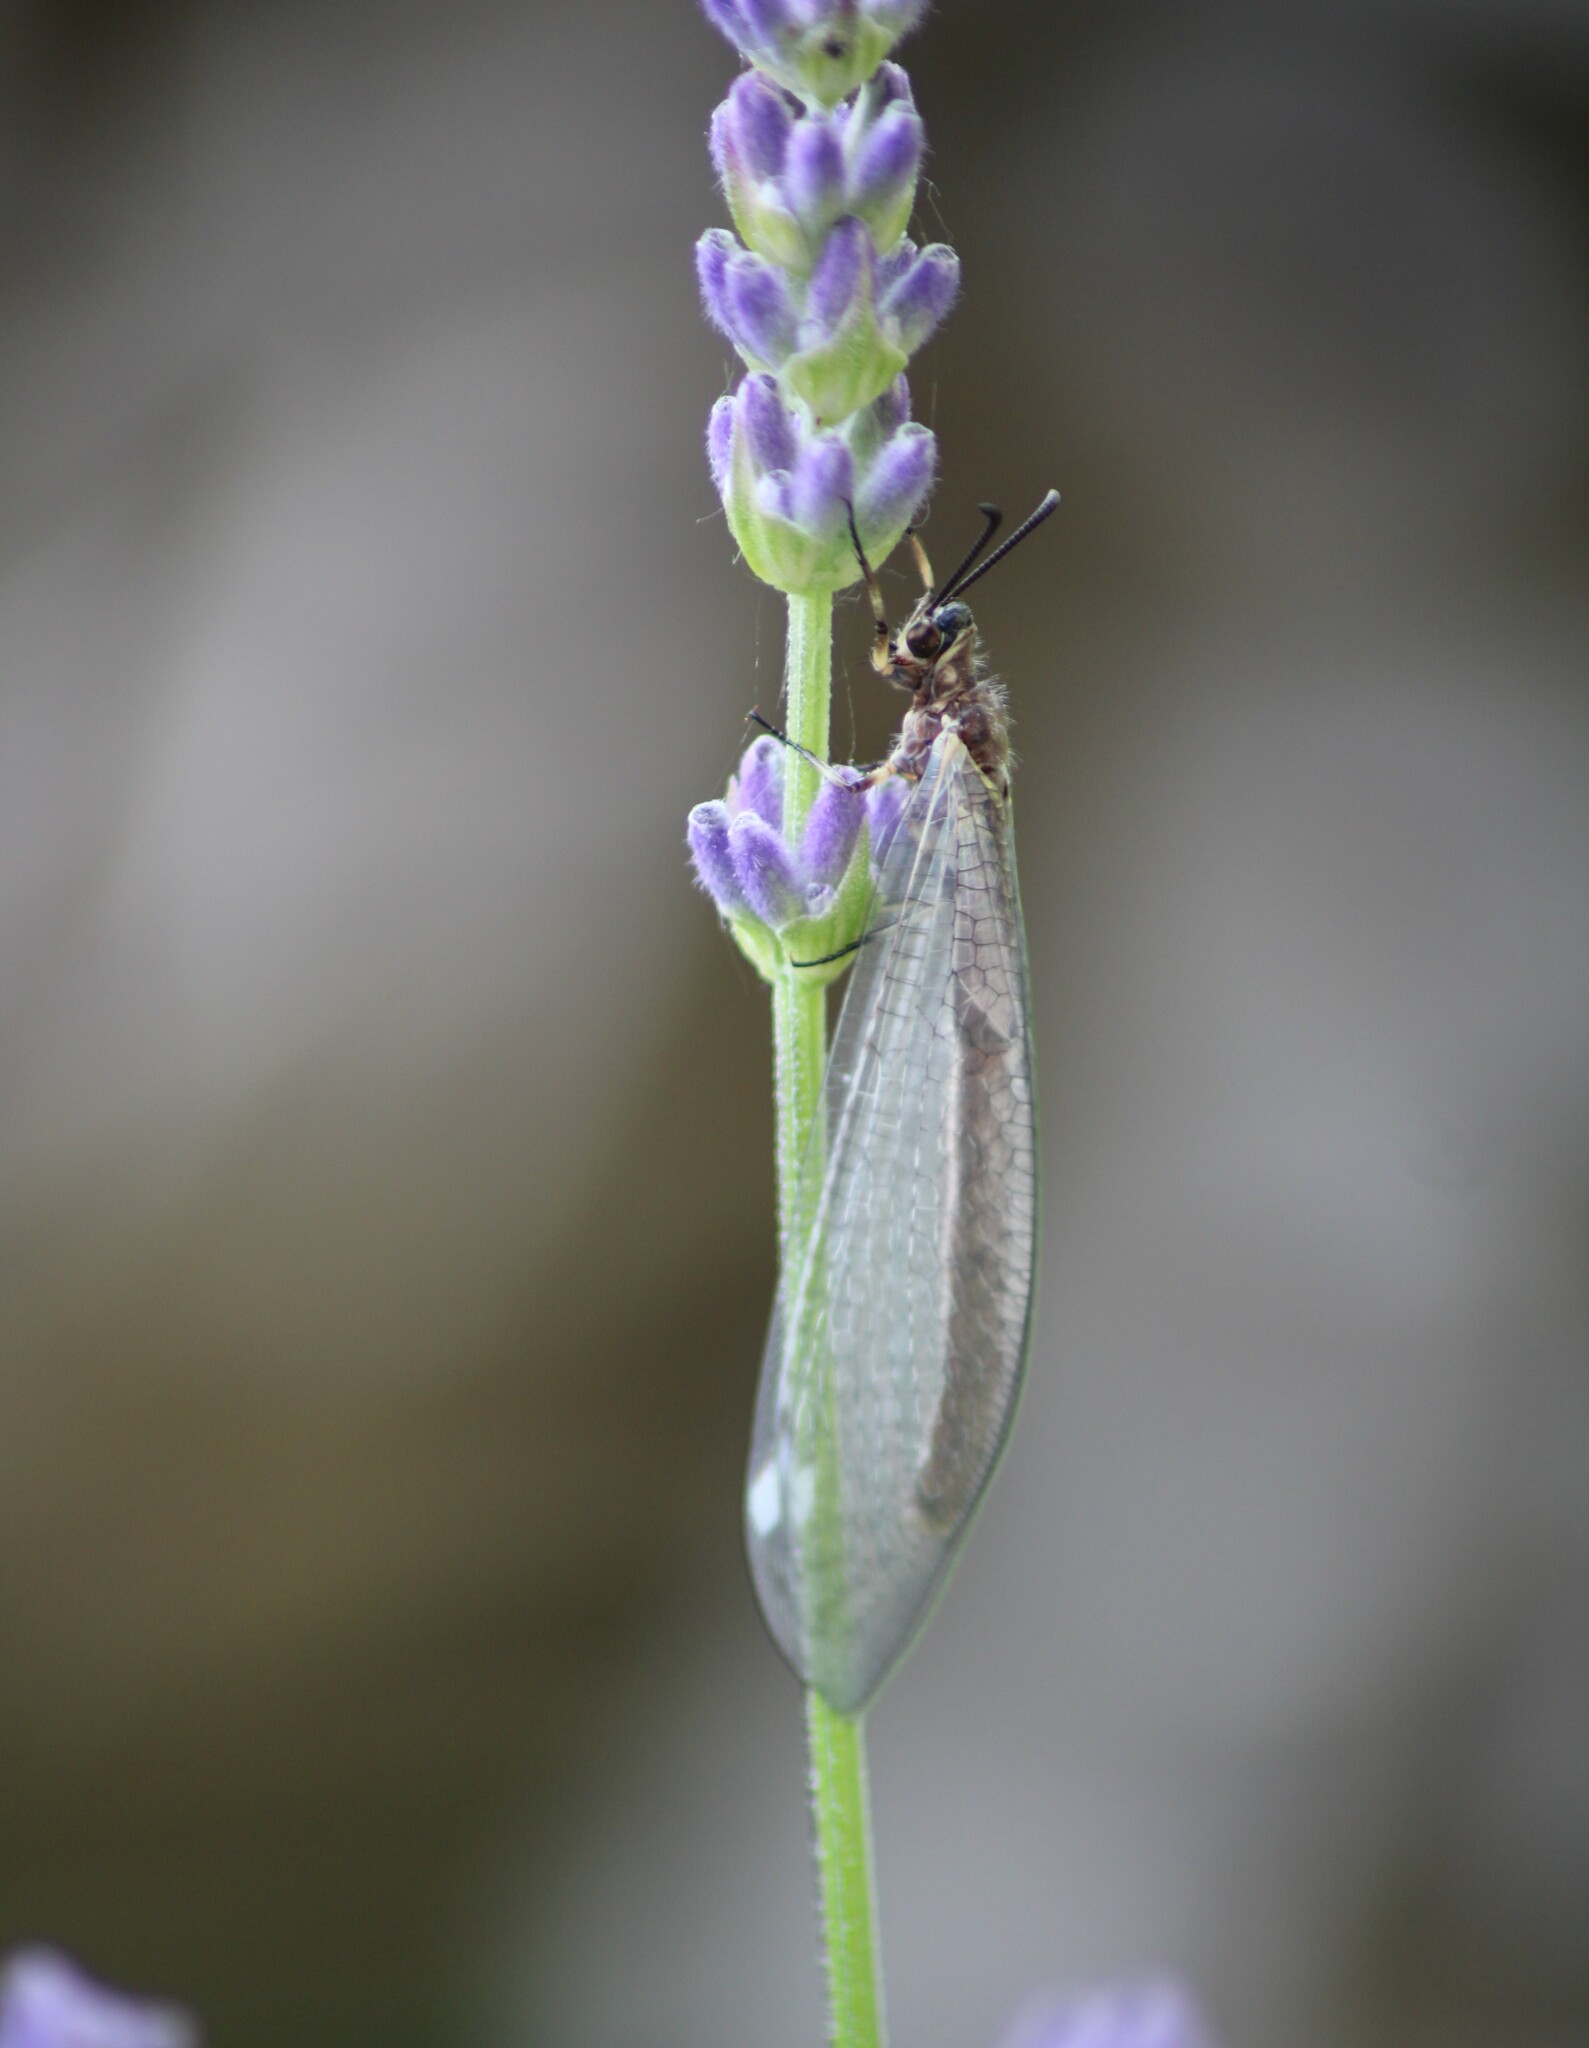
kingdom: Animalia
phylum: Arthropoda
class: Insecta
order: Neuroptera
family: Myrmeleontidae
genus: Myrmeleon
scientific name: Myrmeleon formicarius
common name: Ant-lion
